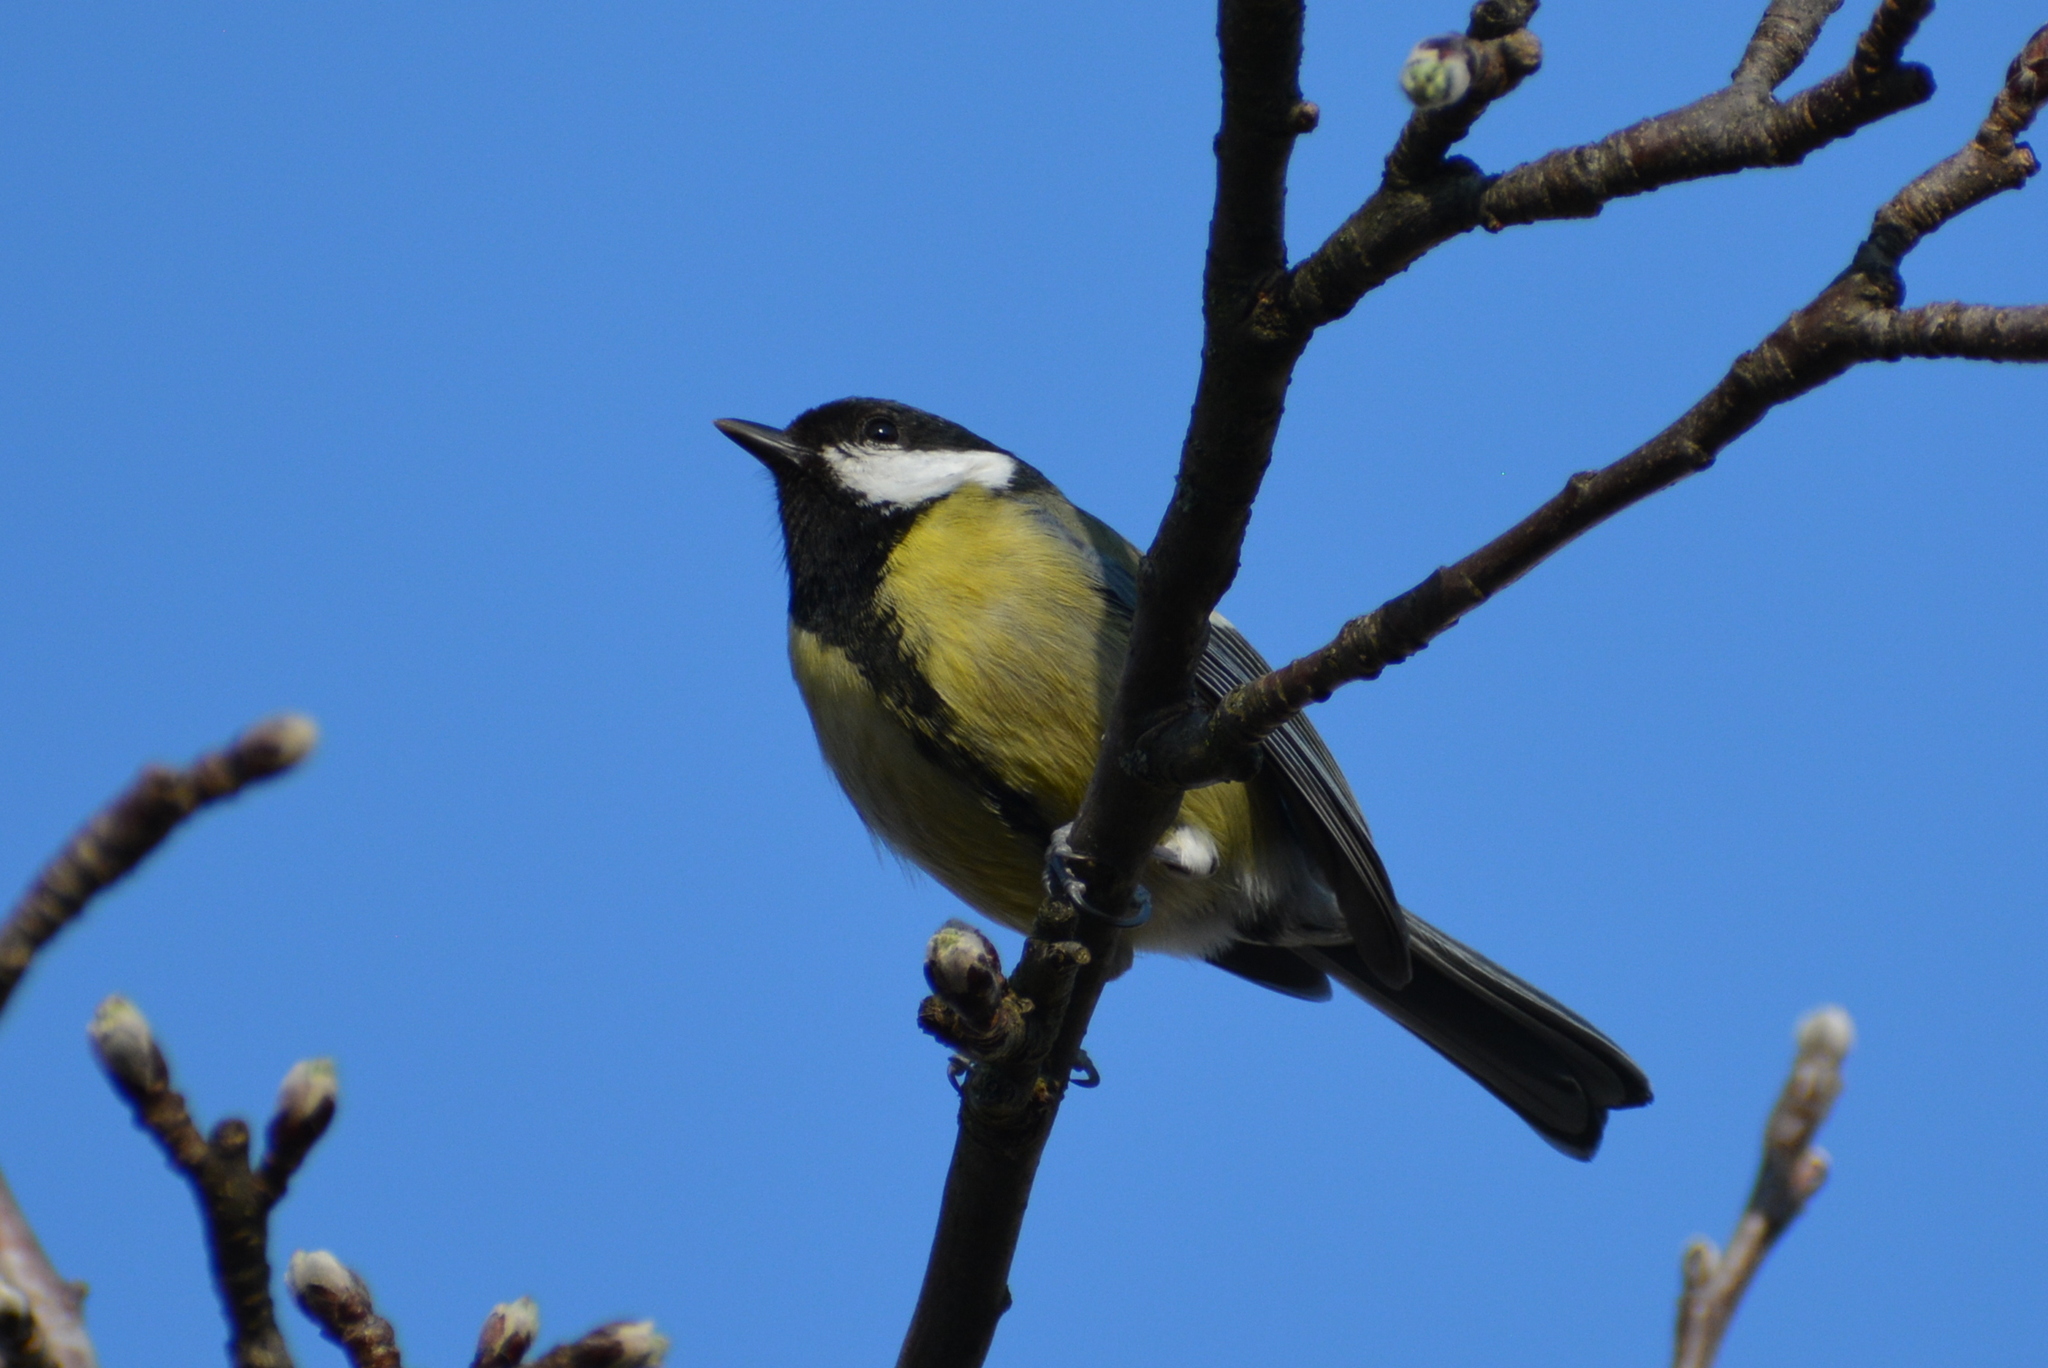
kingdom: Animalia
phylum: Chordata
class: Aves
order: Passeriformes
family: Paridae
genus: Parus
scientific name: Parus major
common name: Great tit
